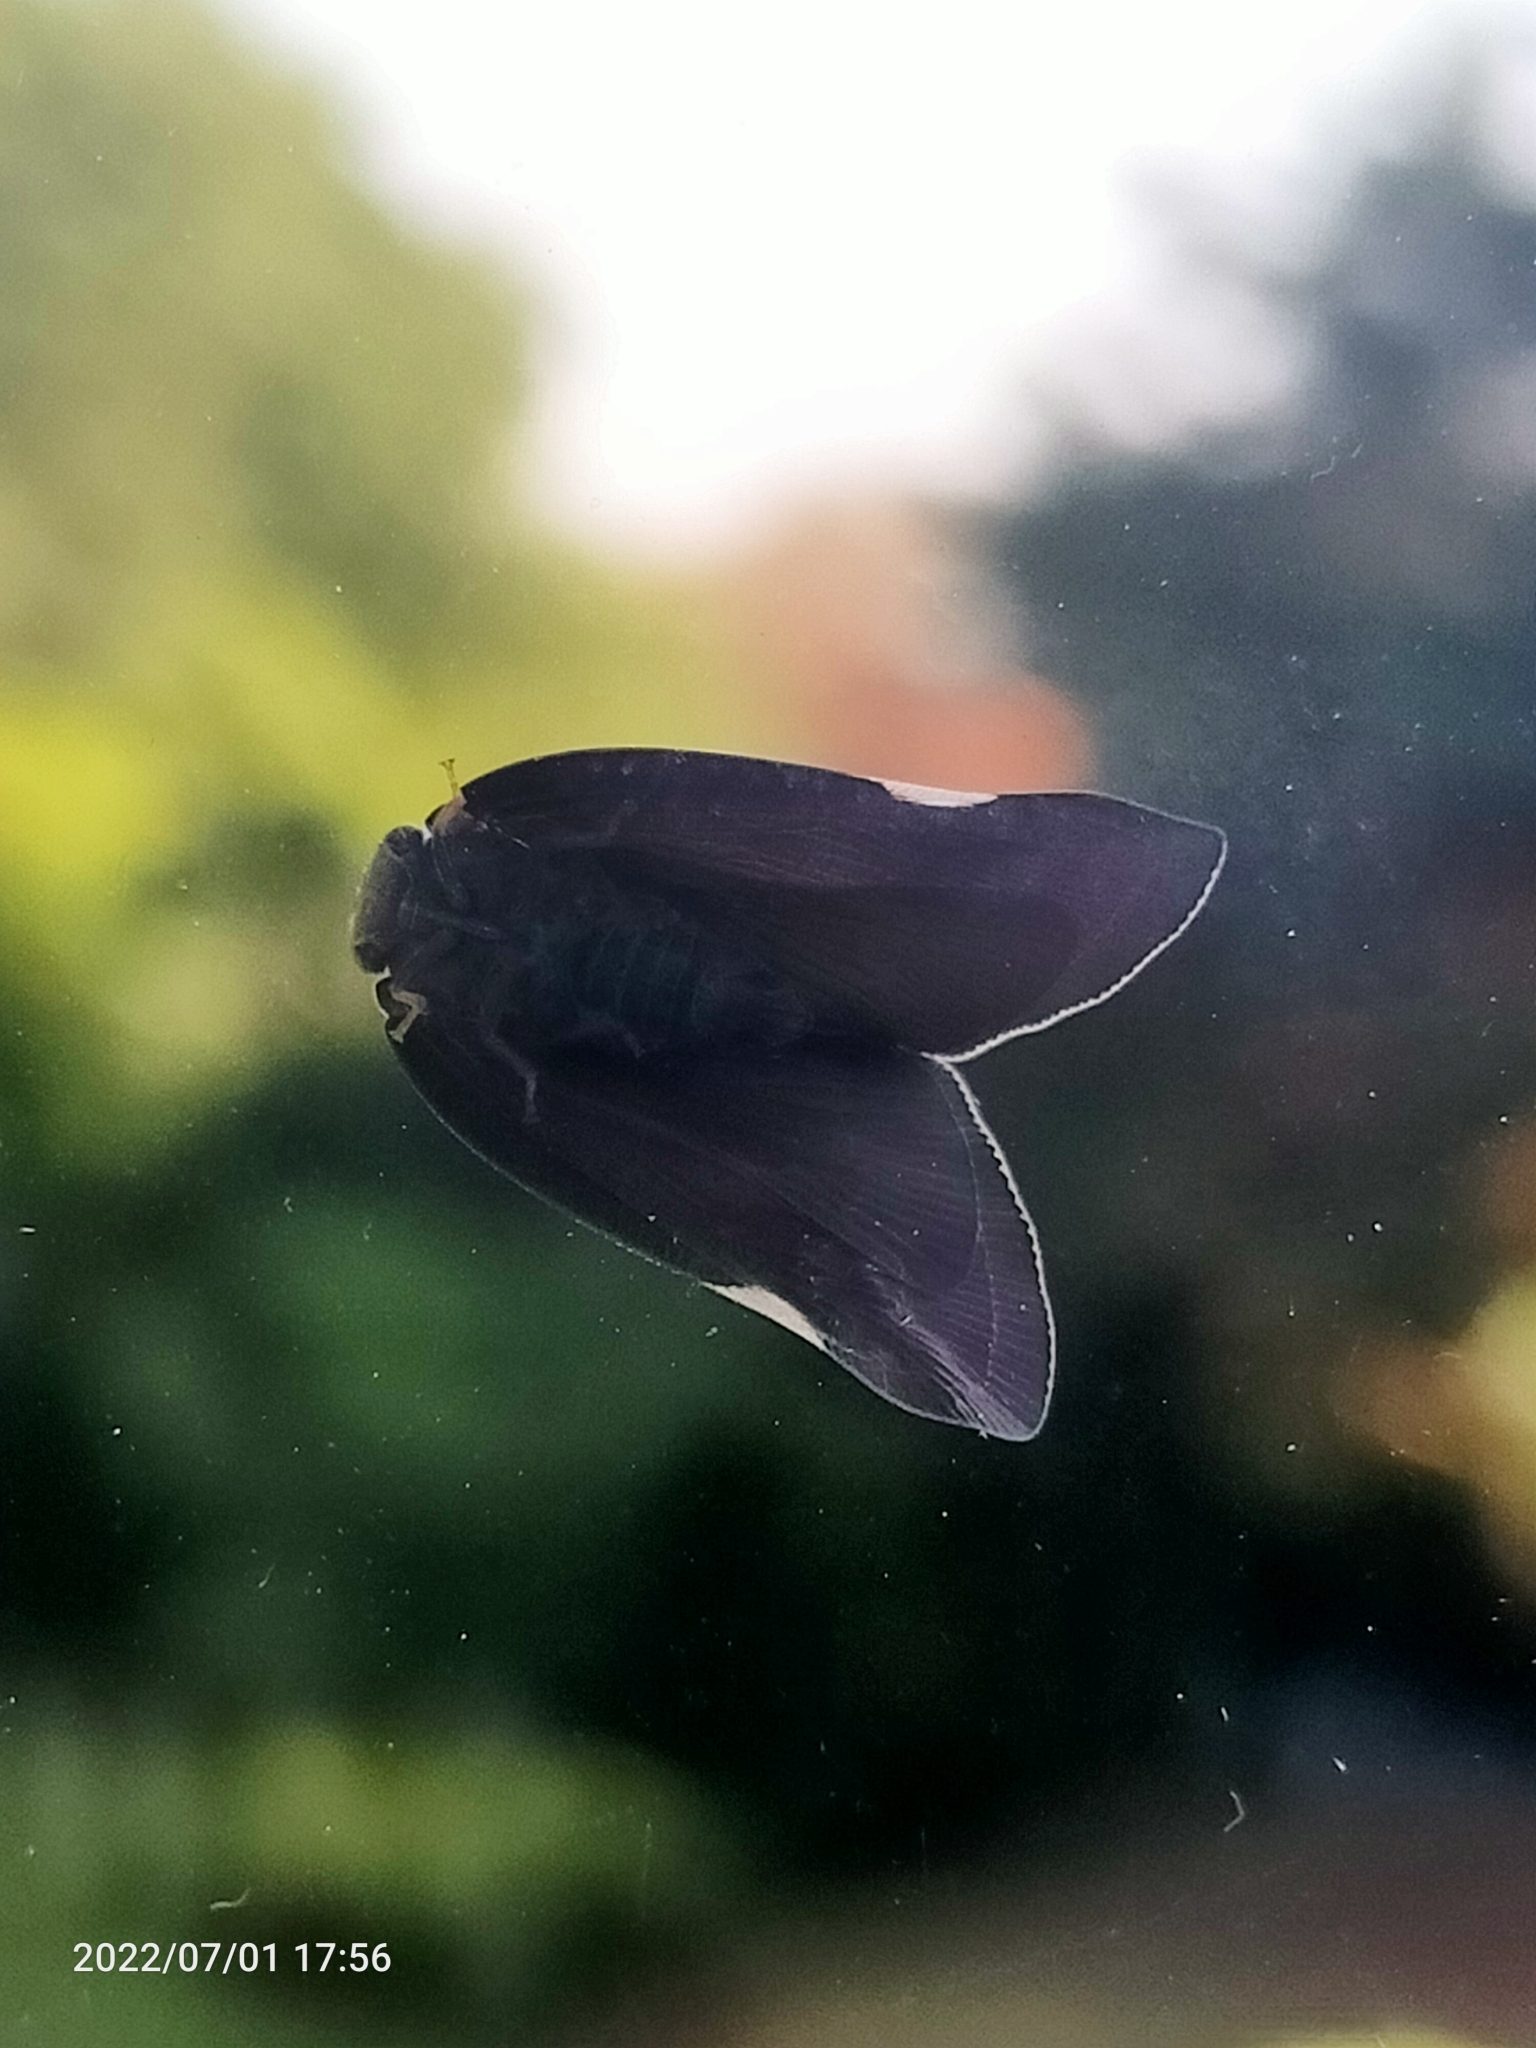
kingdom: Animalia
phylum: Arthropoda
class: Insecta
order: Hemiptera
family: Ricaniidae
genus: Ricania
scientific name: Ricania shantungensis
